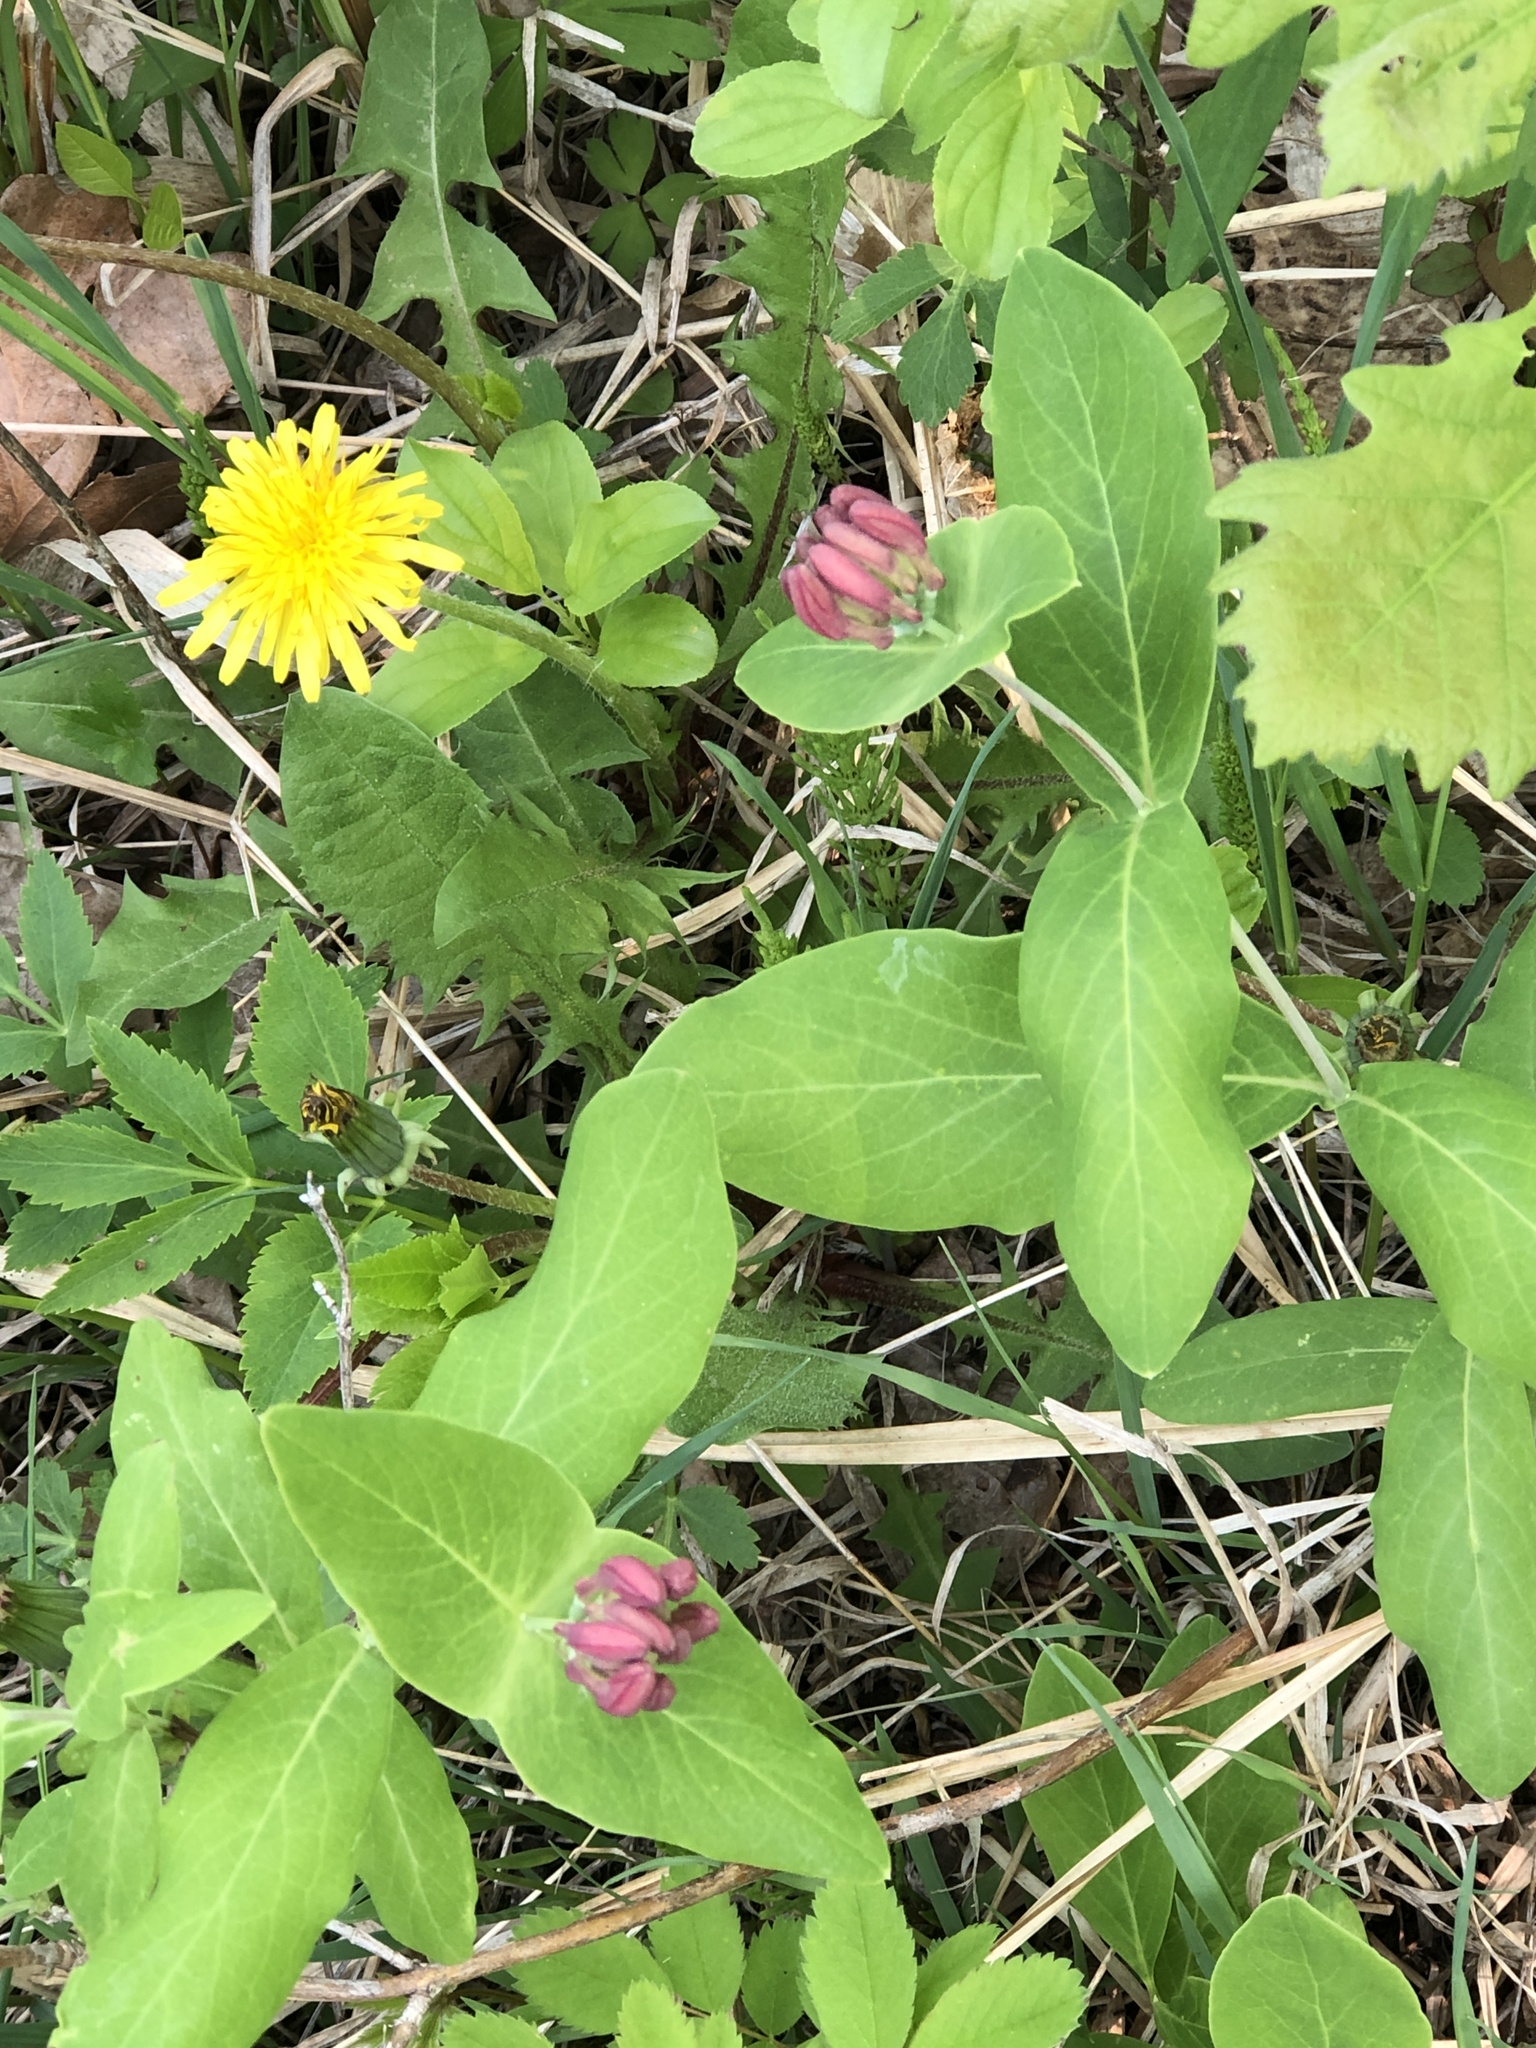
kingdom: Plantae
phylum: Tracheophyta
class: Magnoliopsida
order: Dipsacales
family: Caprifoliaceae
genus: Lonicera
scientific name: Lonicera dioica
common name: Limber honeysuckle
